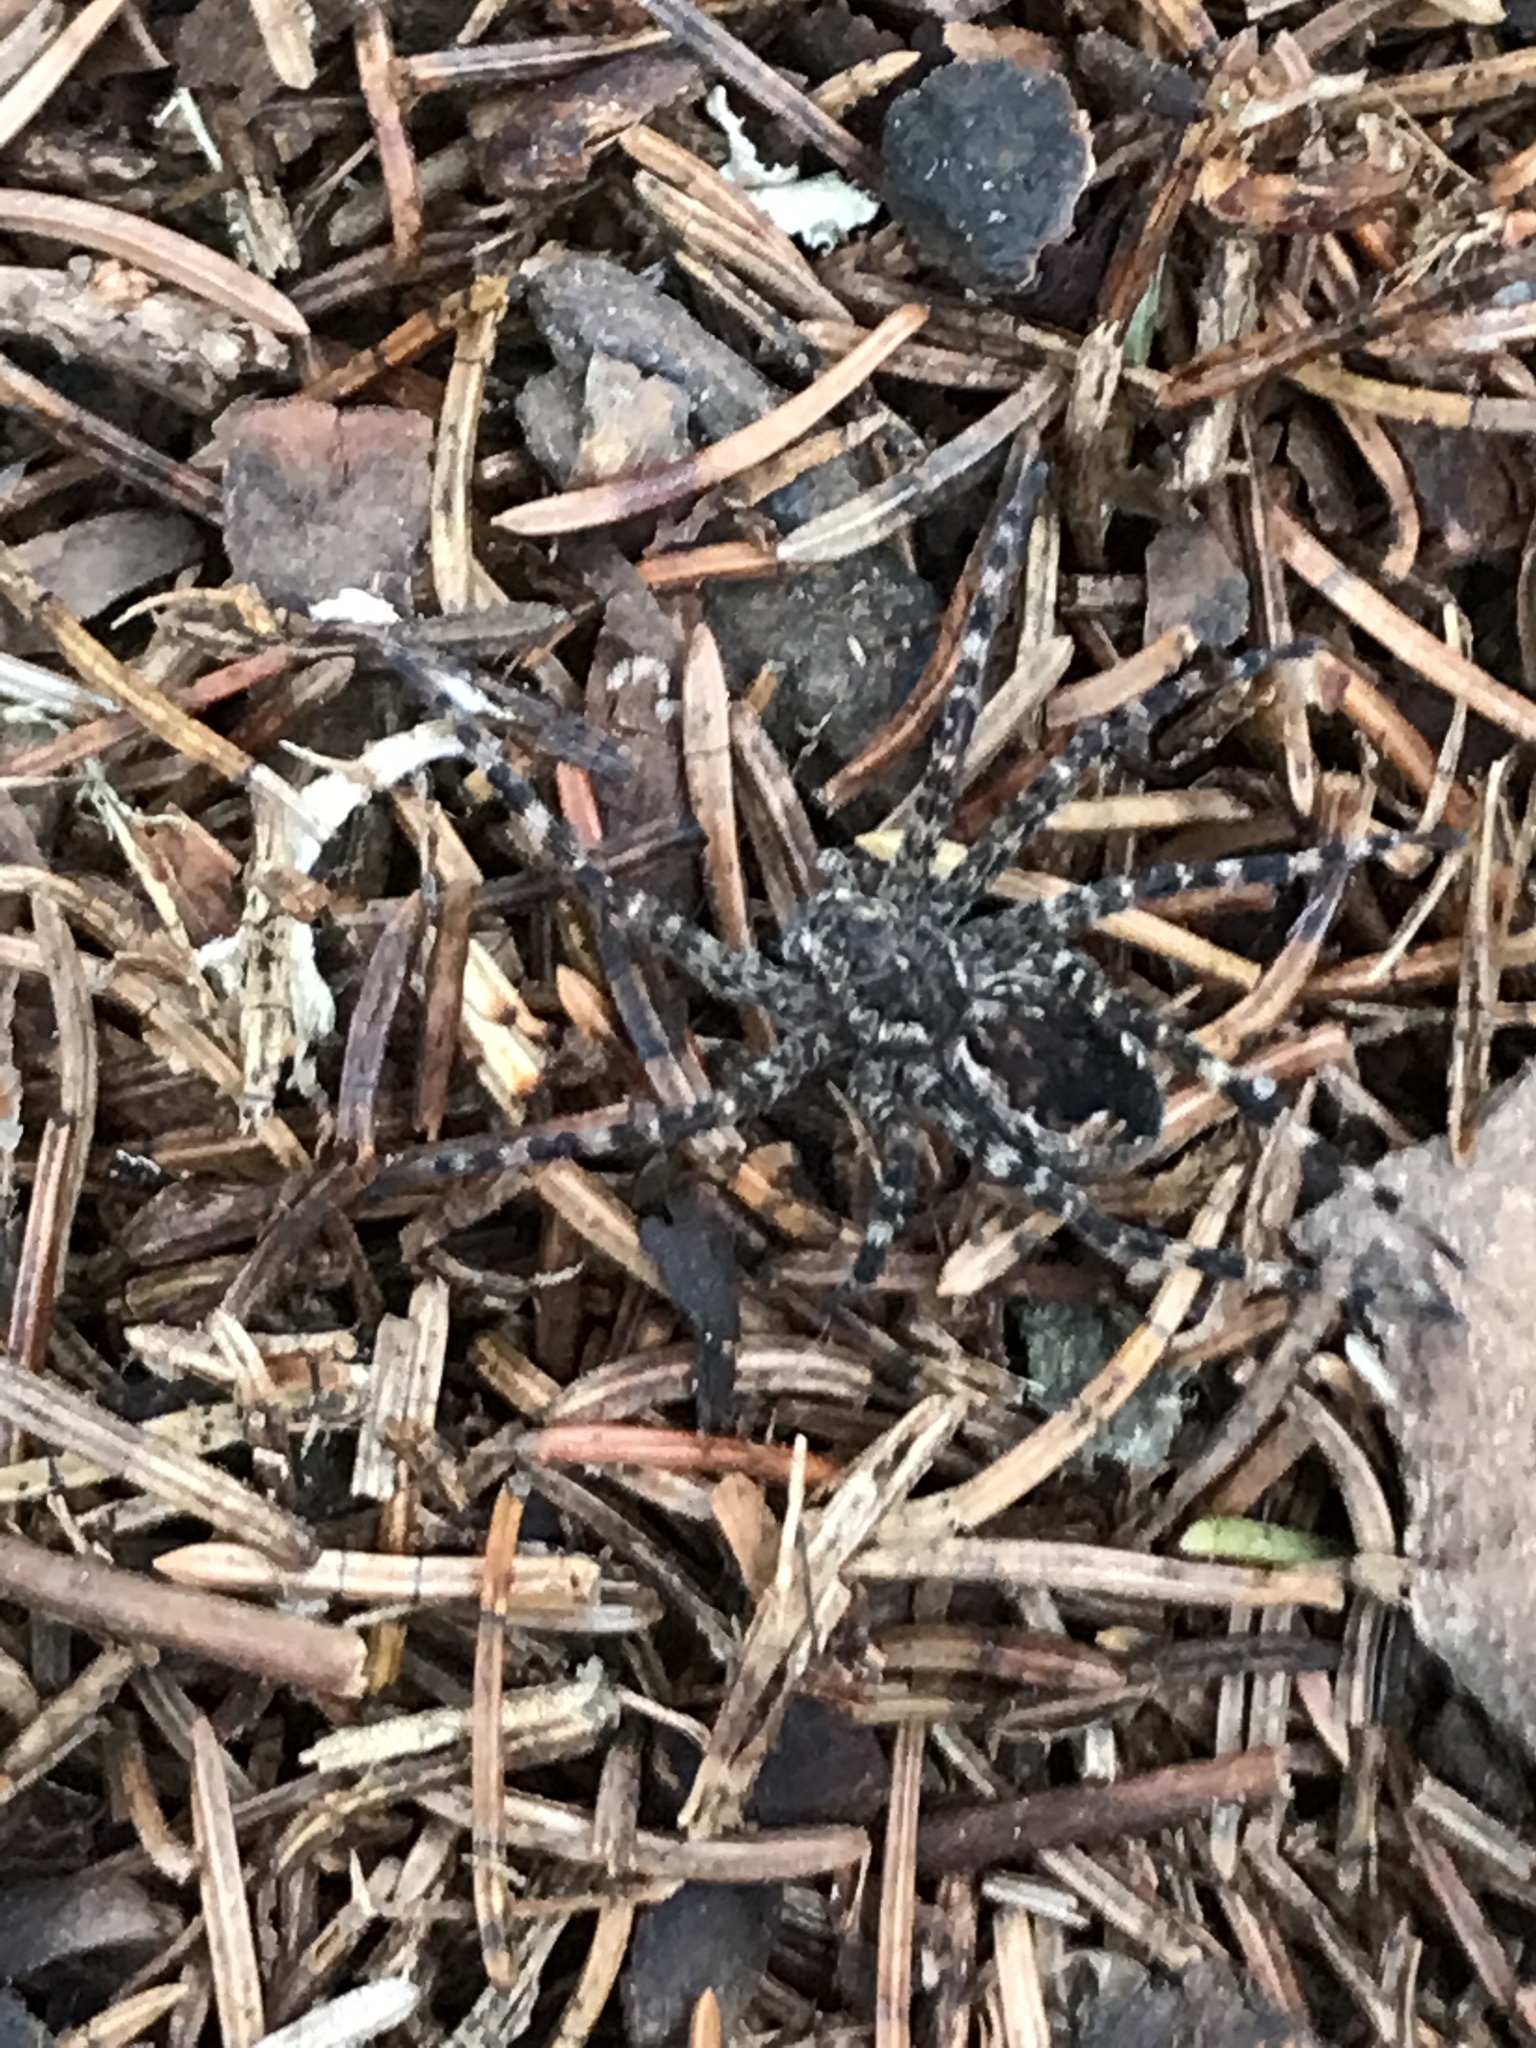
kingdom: Animalia
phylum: Arthropoda
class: Arachnida
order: Araneae
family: Pisauridae
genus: Dolomedes
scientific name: Dolomedes tenebrosus
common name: Dark fishing spider
